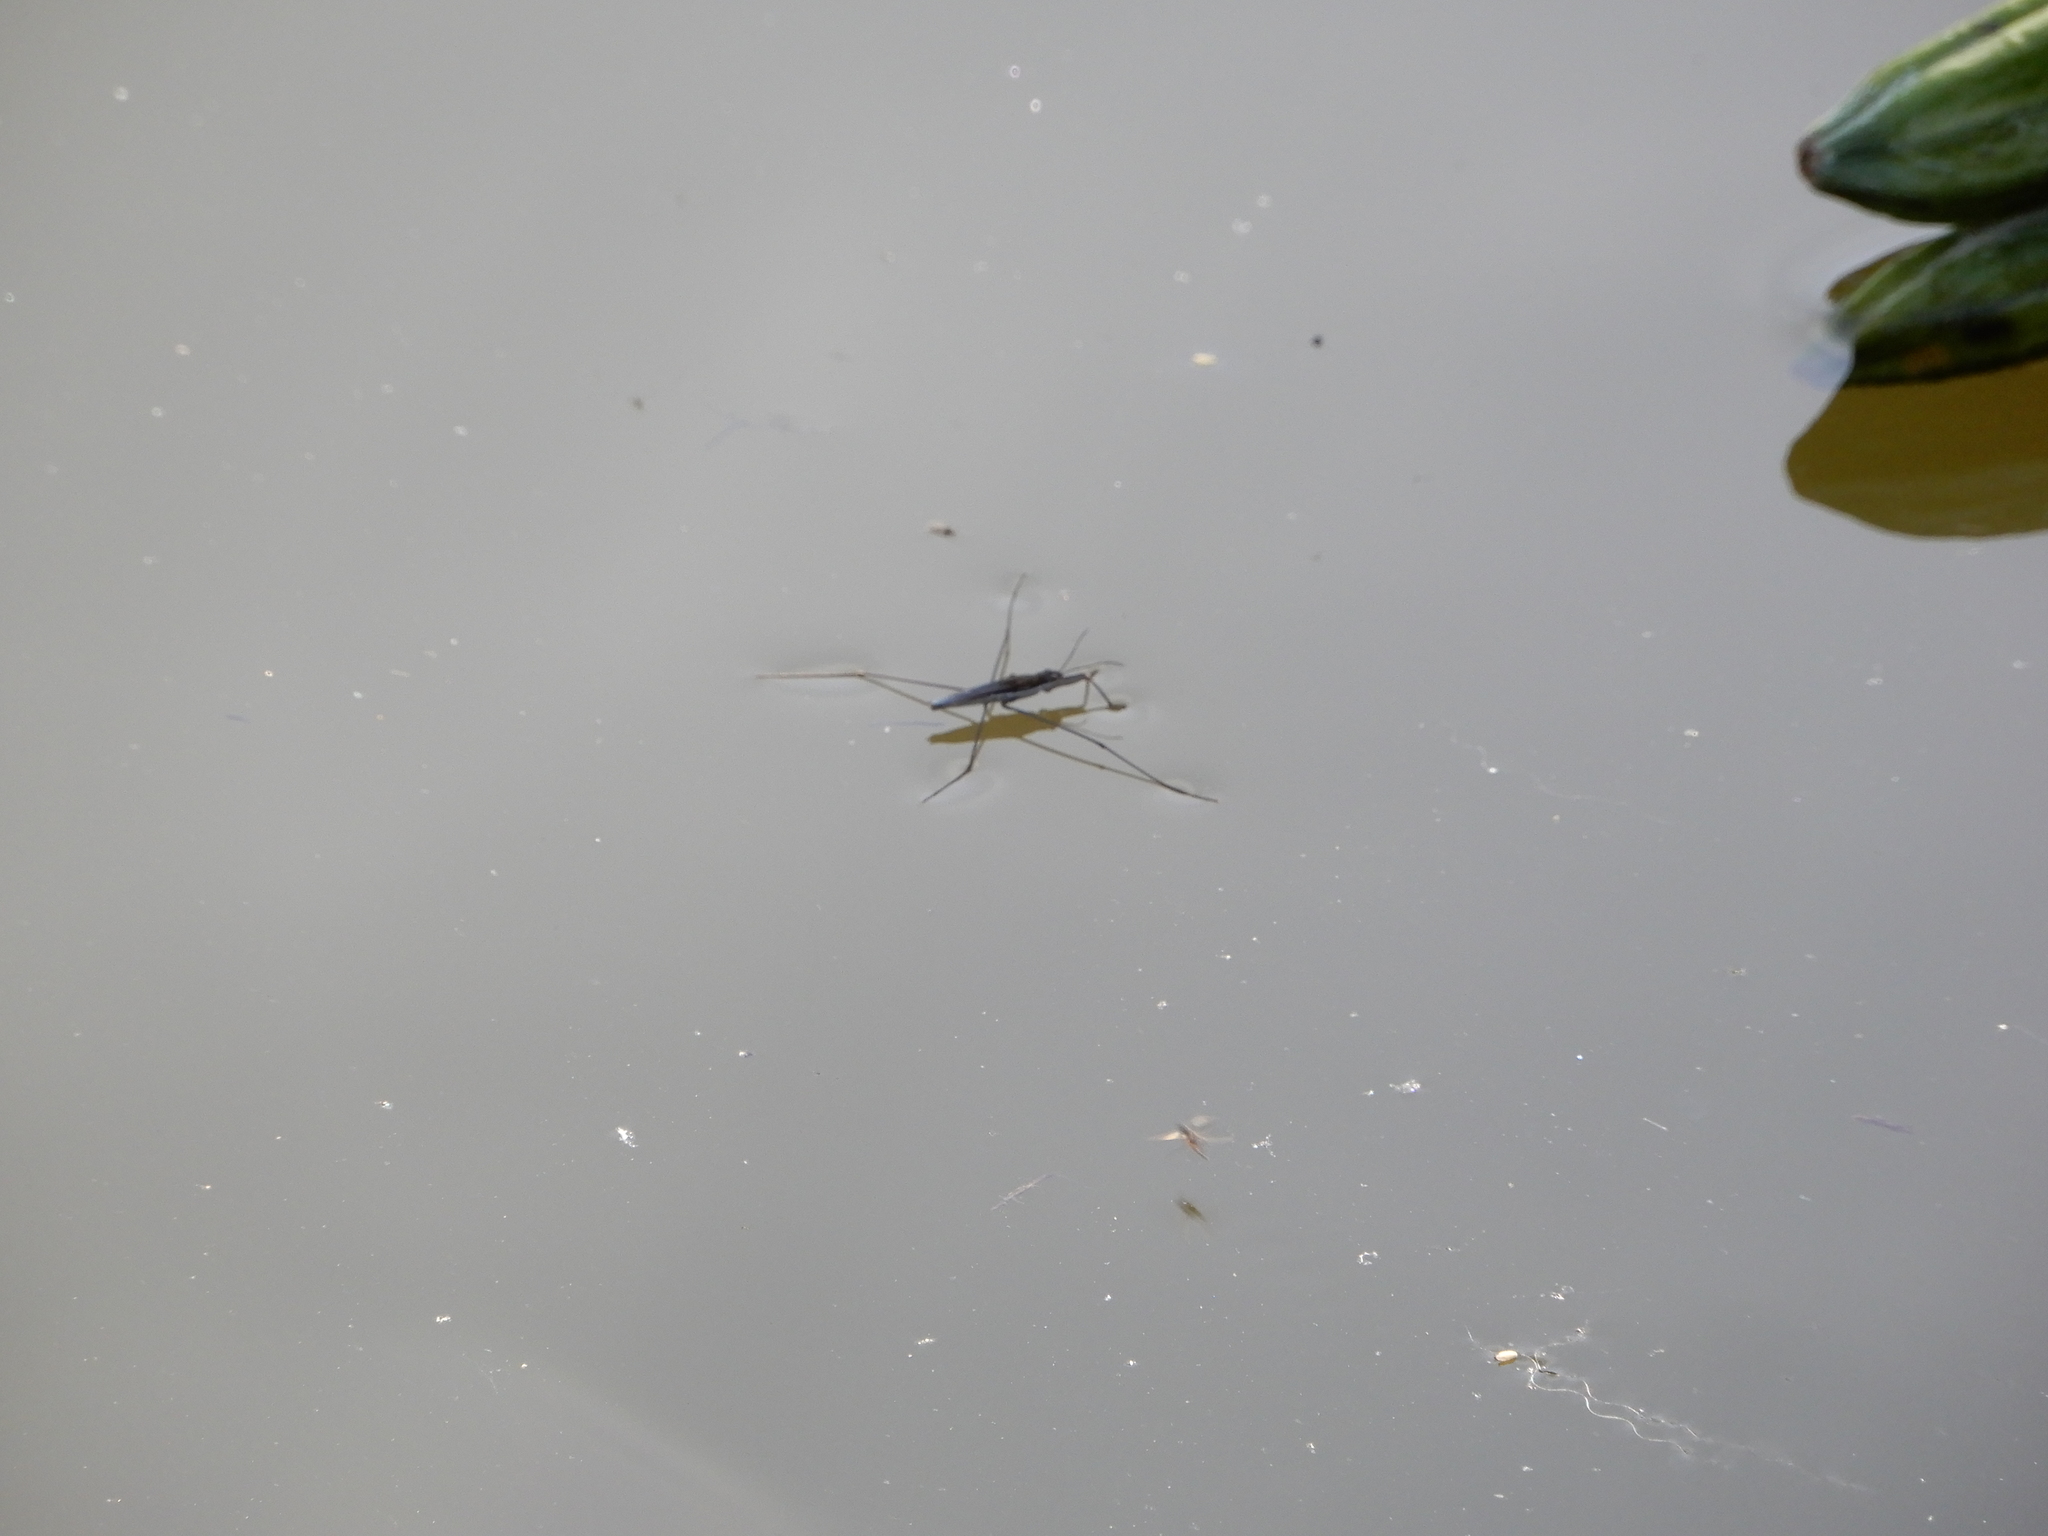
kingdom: Animalia
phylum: Arthropoda
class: Insecta
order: Hemiptera
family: Gerridae
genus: Aquarius
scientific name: Aquarius paludum
